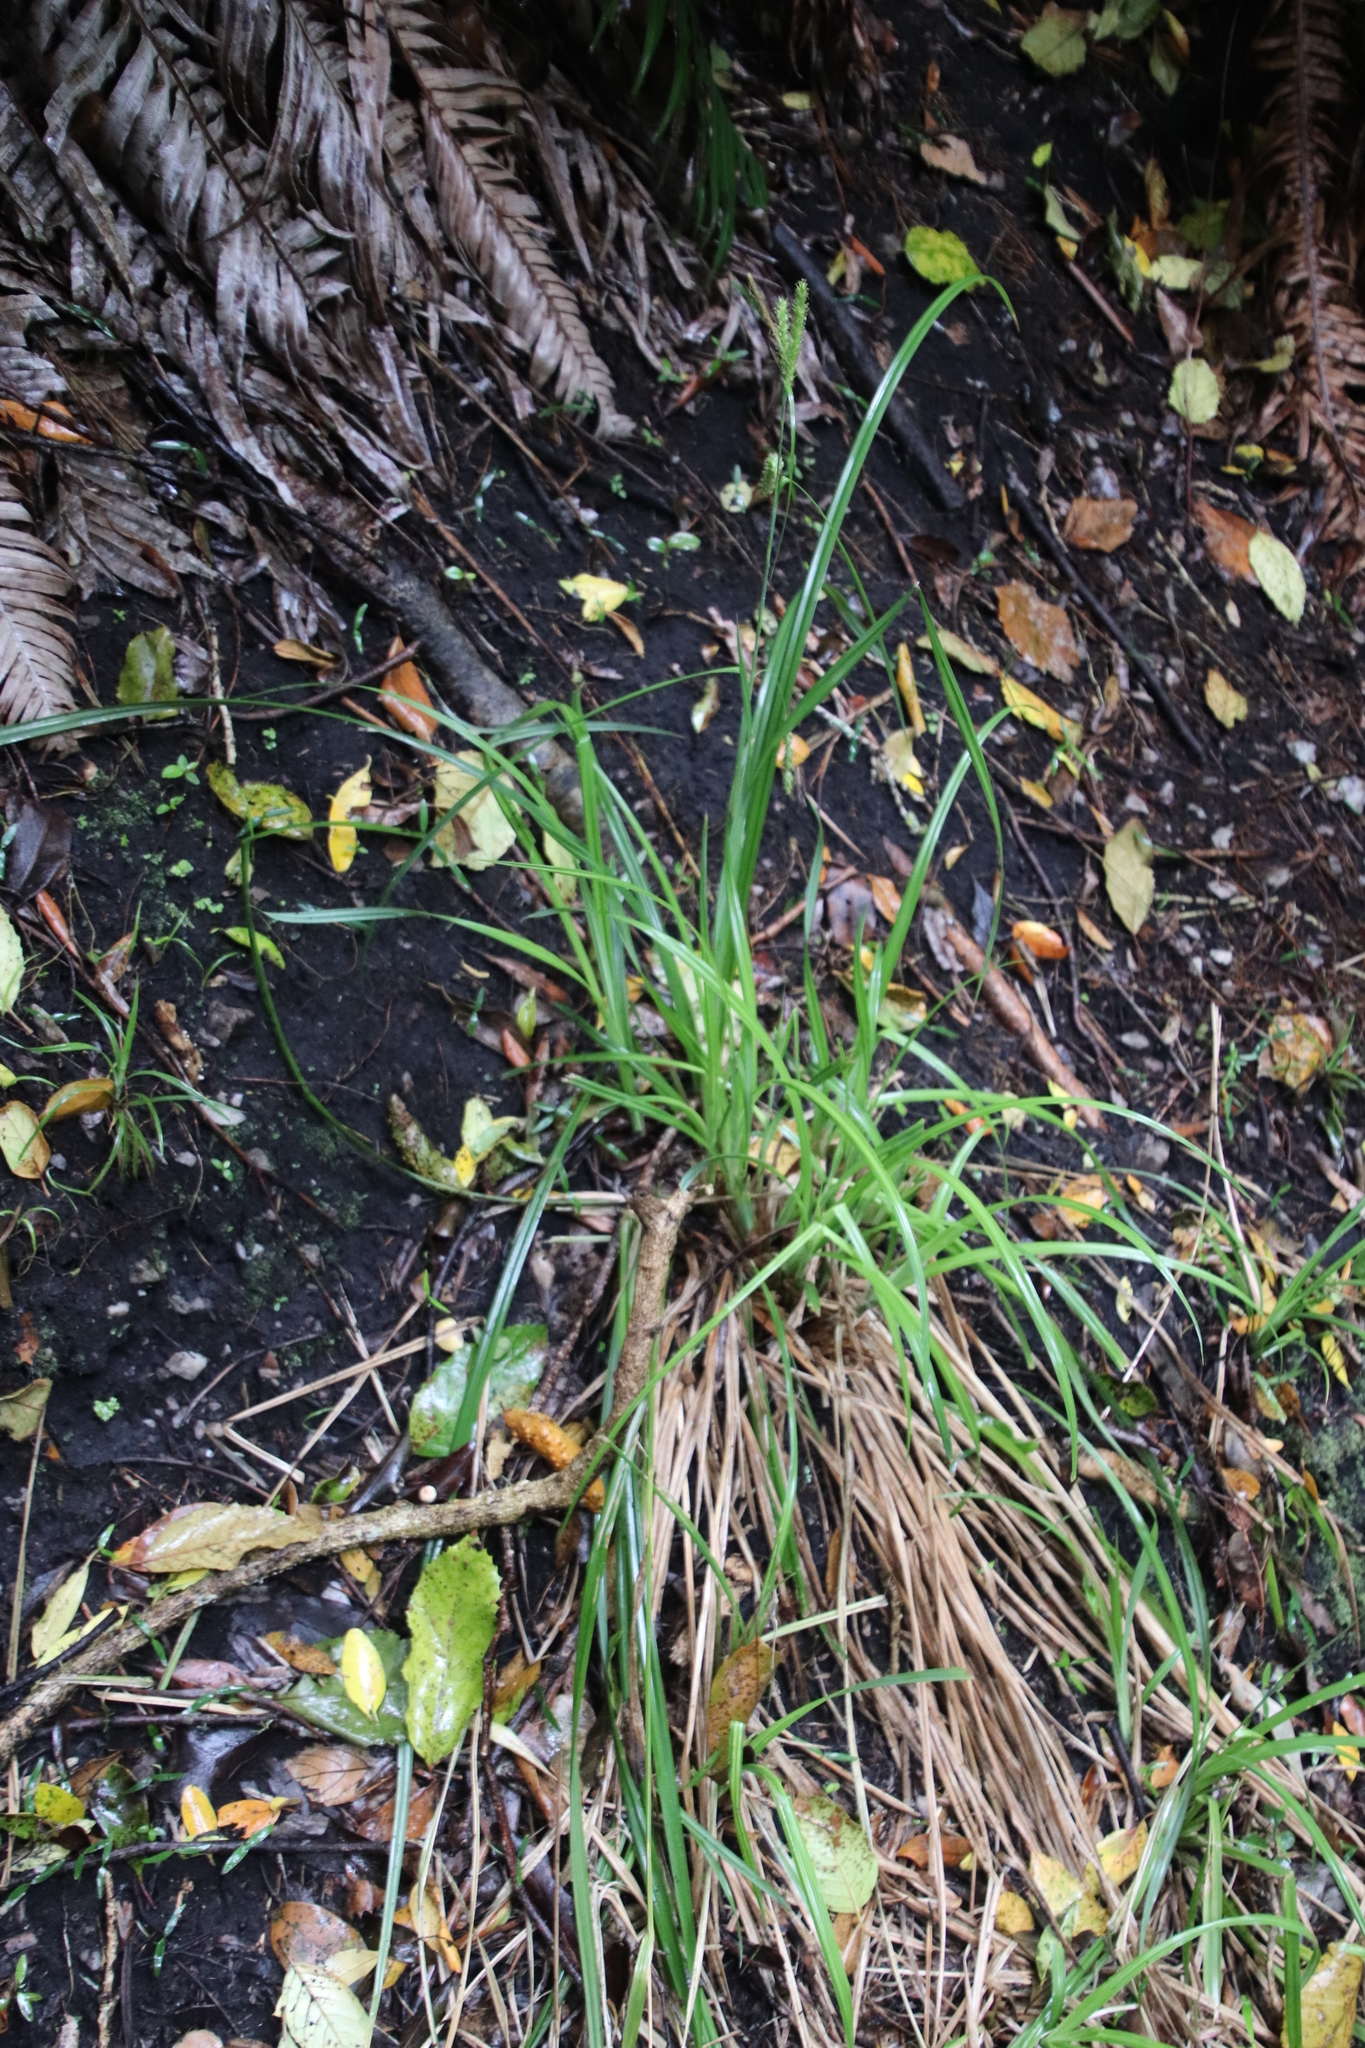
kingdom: Plantae
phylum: Tracheophyta
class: Liliopsida
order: Poales
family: Cyperaceae
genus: Carex
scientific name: Carex aethiopica
